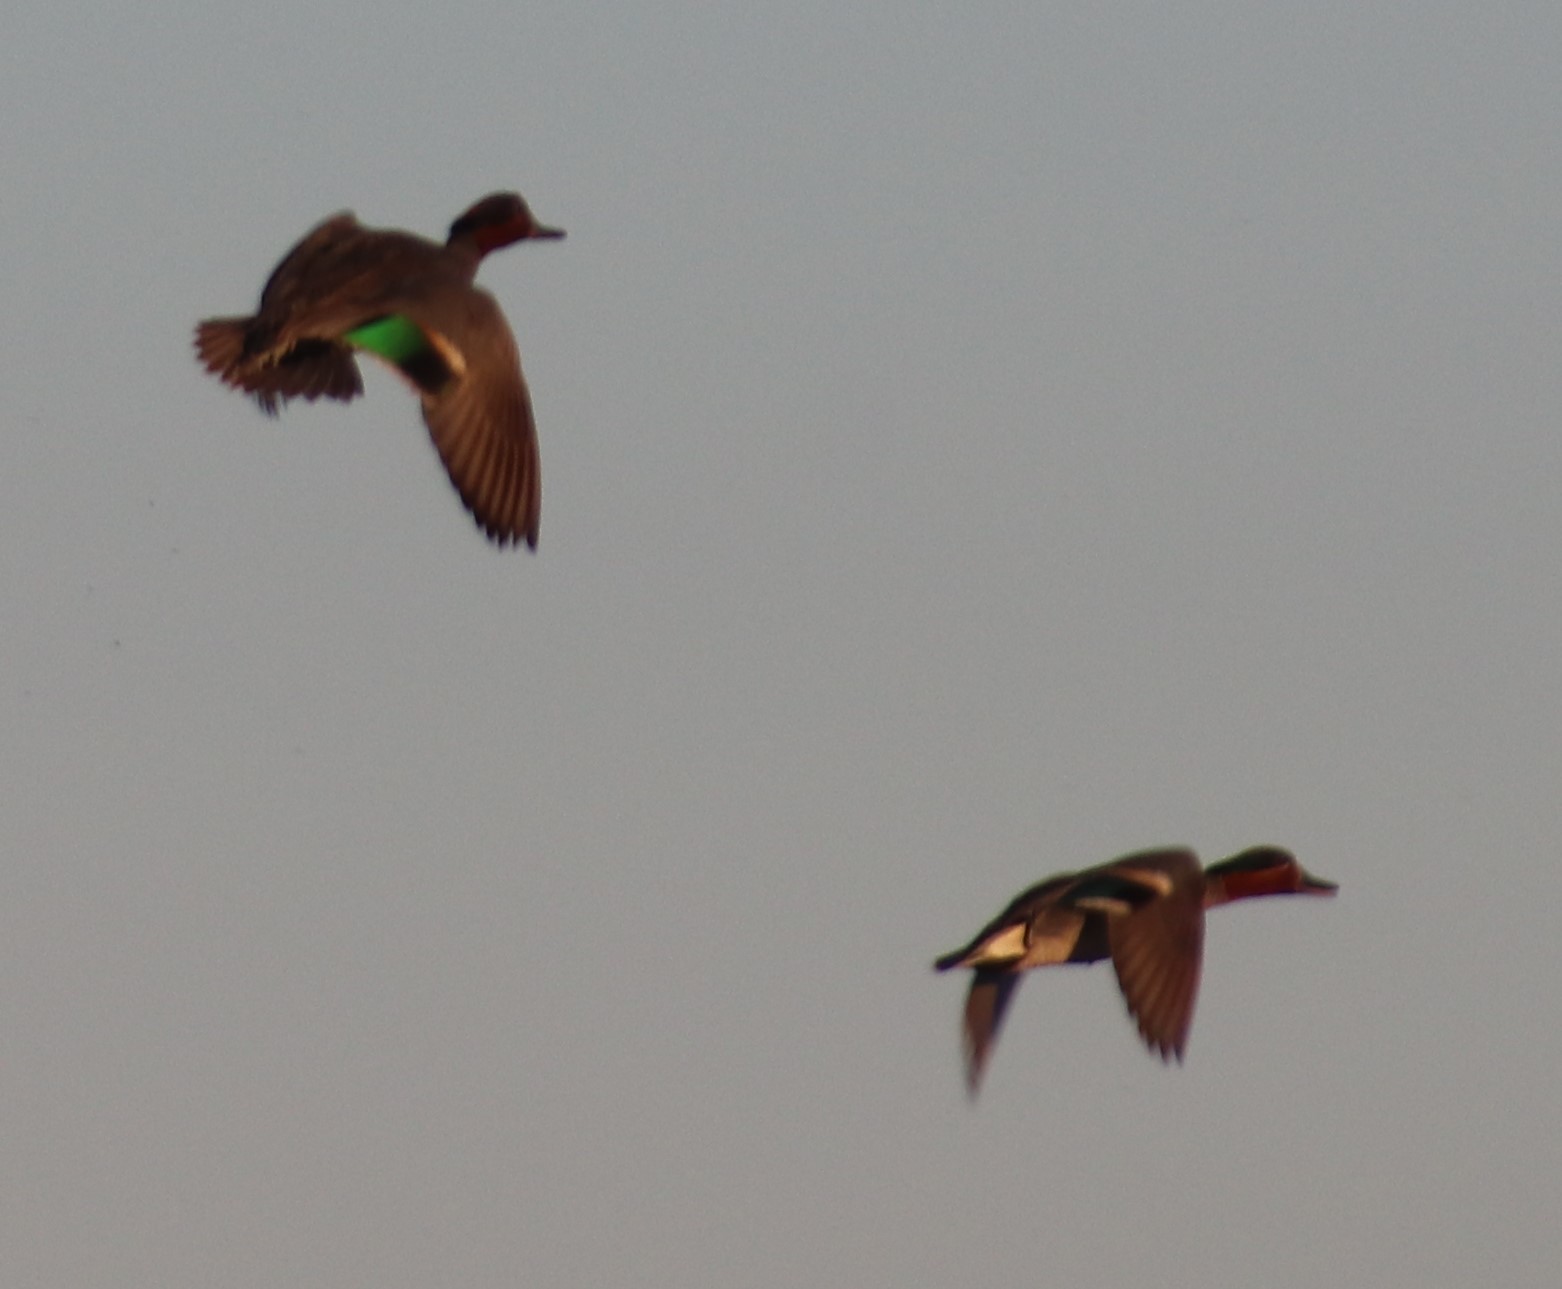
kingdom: Animalia
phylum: Chordata
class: Aves
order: Anseriformes
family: Anatidae
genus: Anas
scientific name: Anas crecca
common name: Eurasian teal
